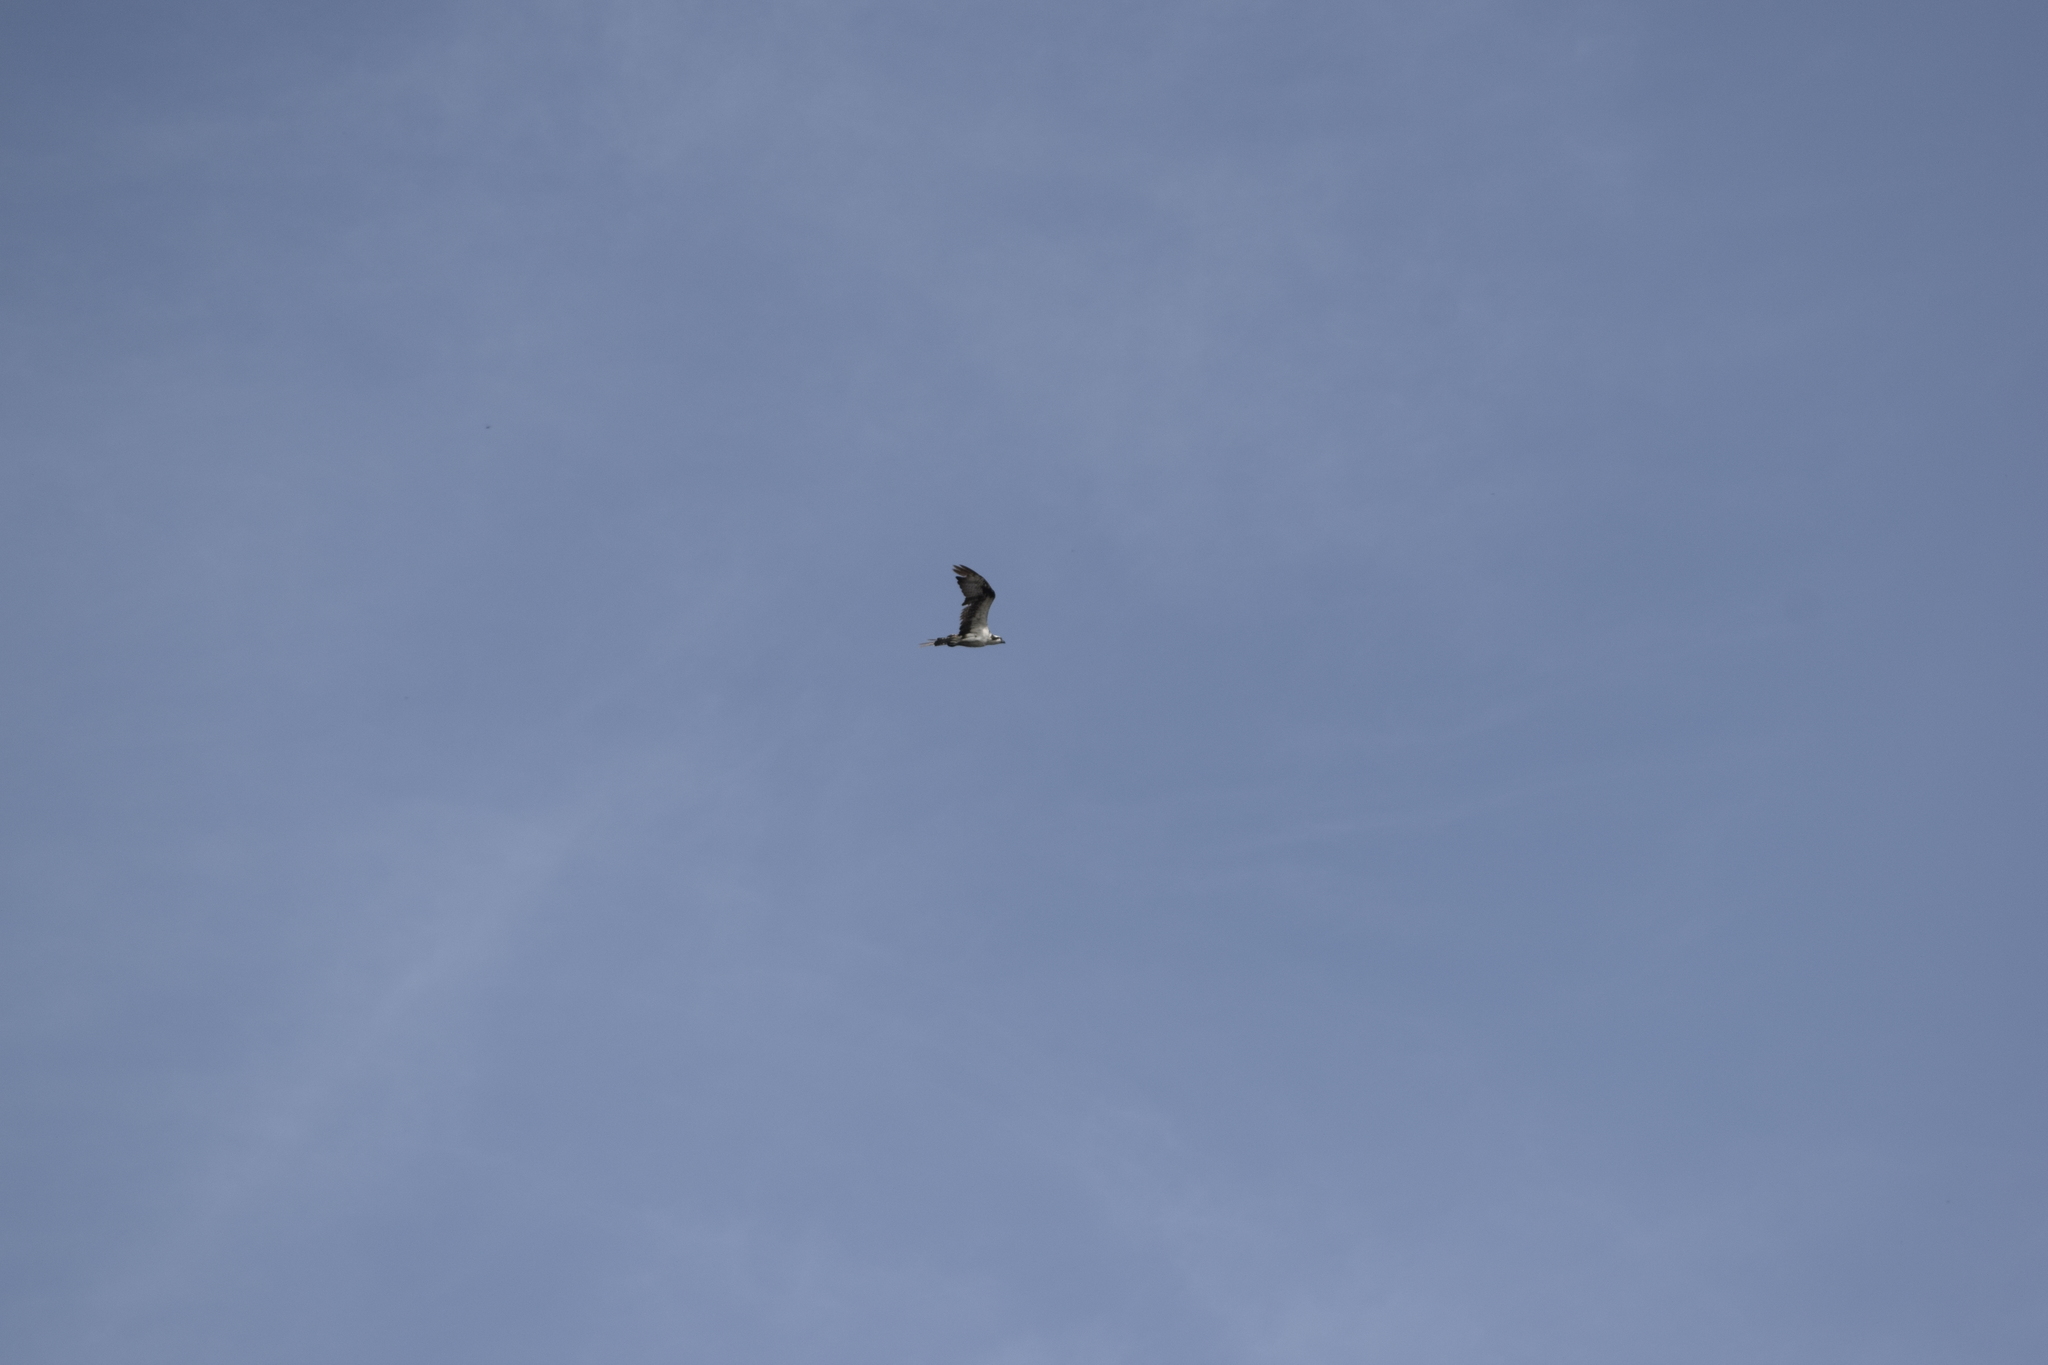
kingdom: Animalia
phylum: Chordata
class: Aves
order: Accipitriformes
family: Pandionidae
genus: Pandion
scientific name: Pandion haliaetus
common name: Osprey
